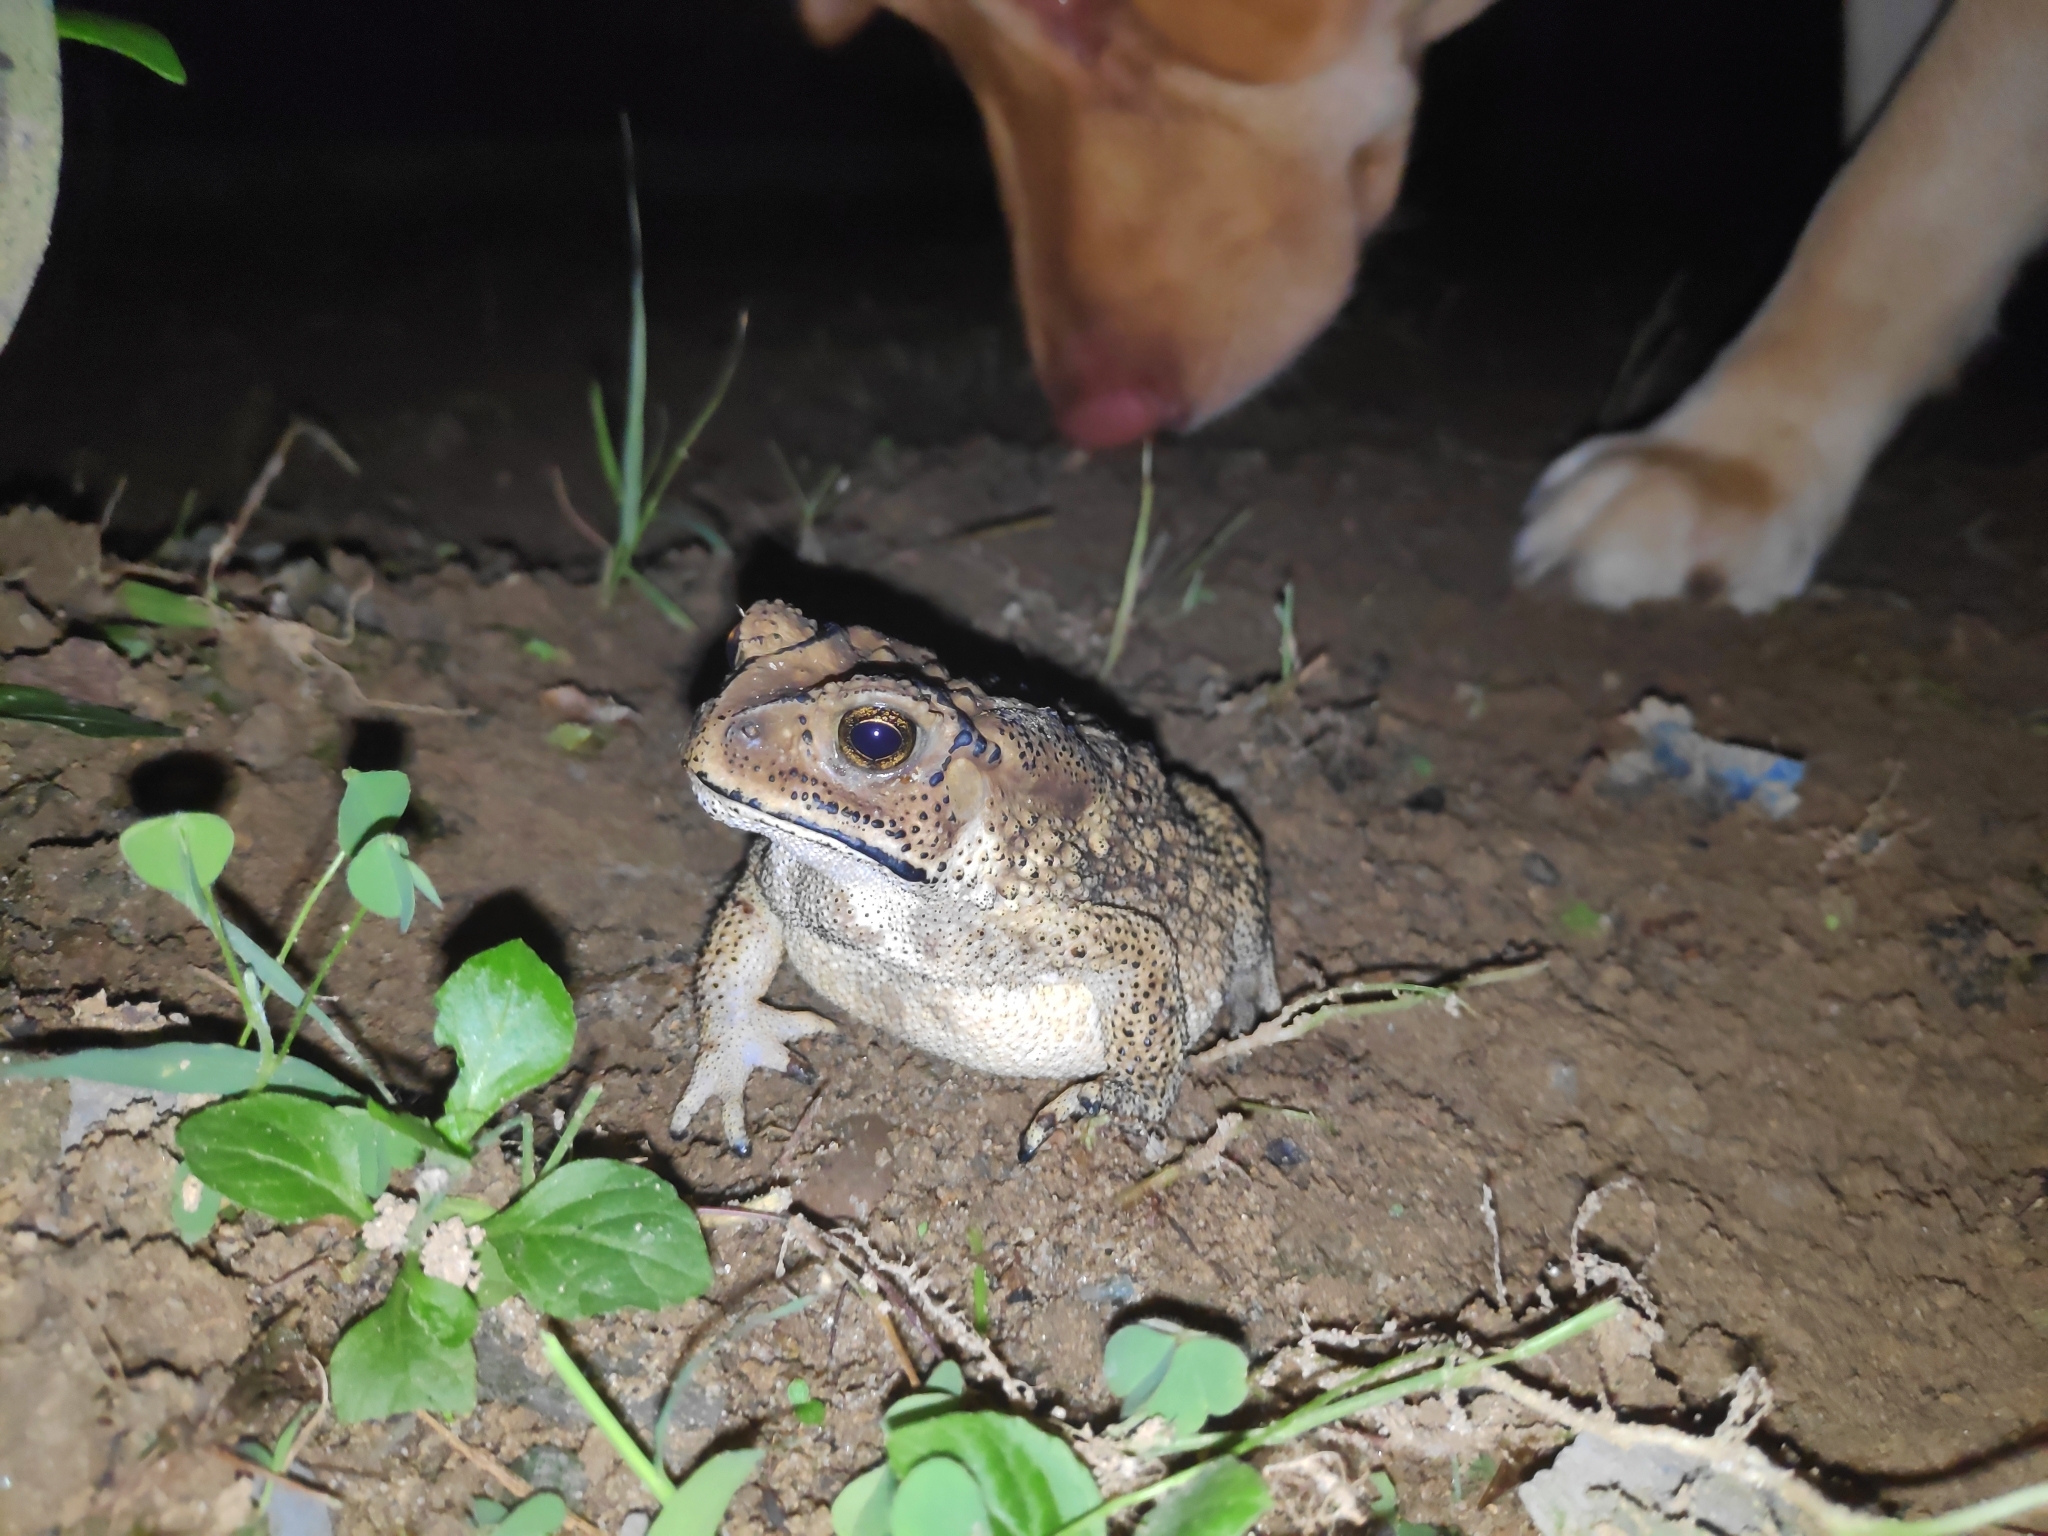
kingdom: Animalia
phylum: Chordata
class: Amphibia
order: Anura
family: Bufonidae
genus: Duttaphrynus
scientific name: Duttaphrynus melanostictus
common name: Common sunda toad
